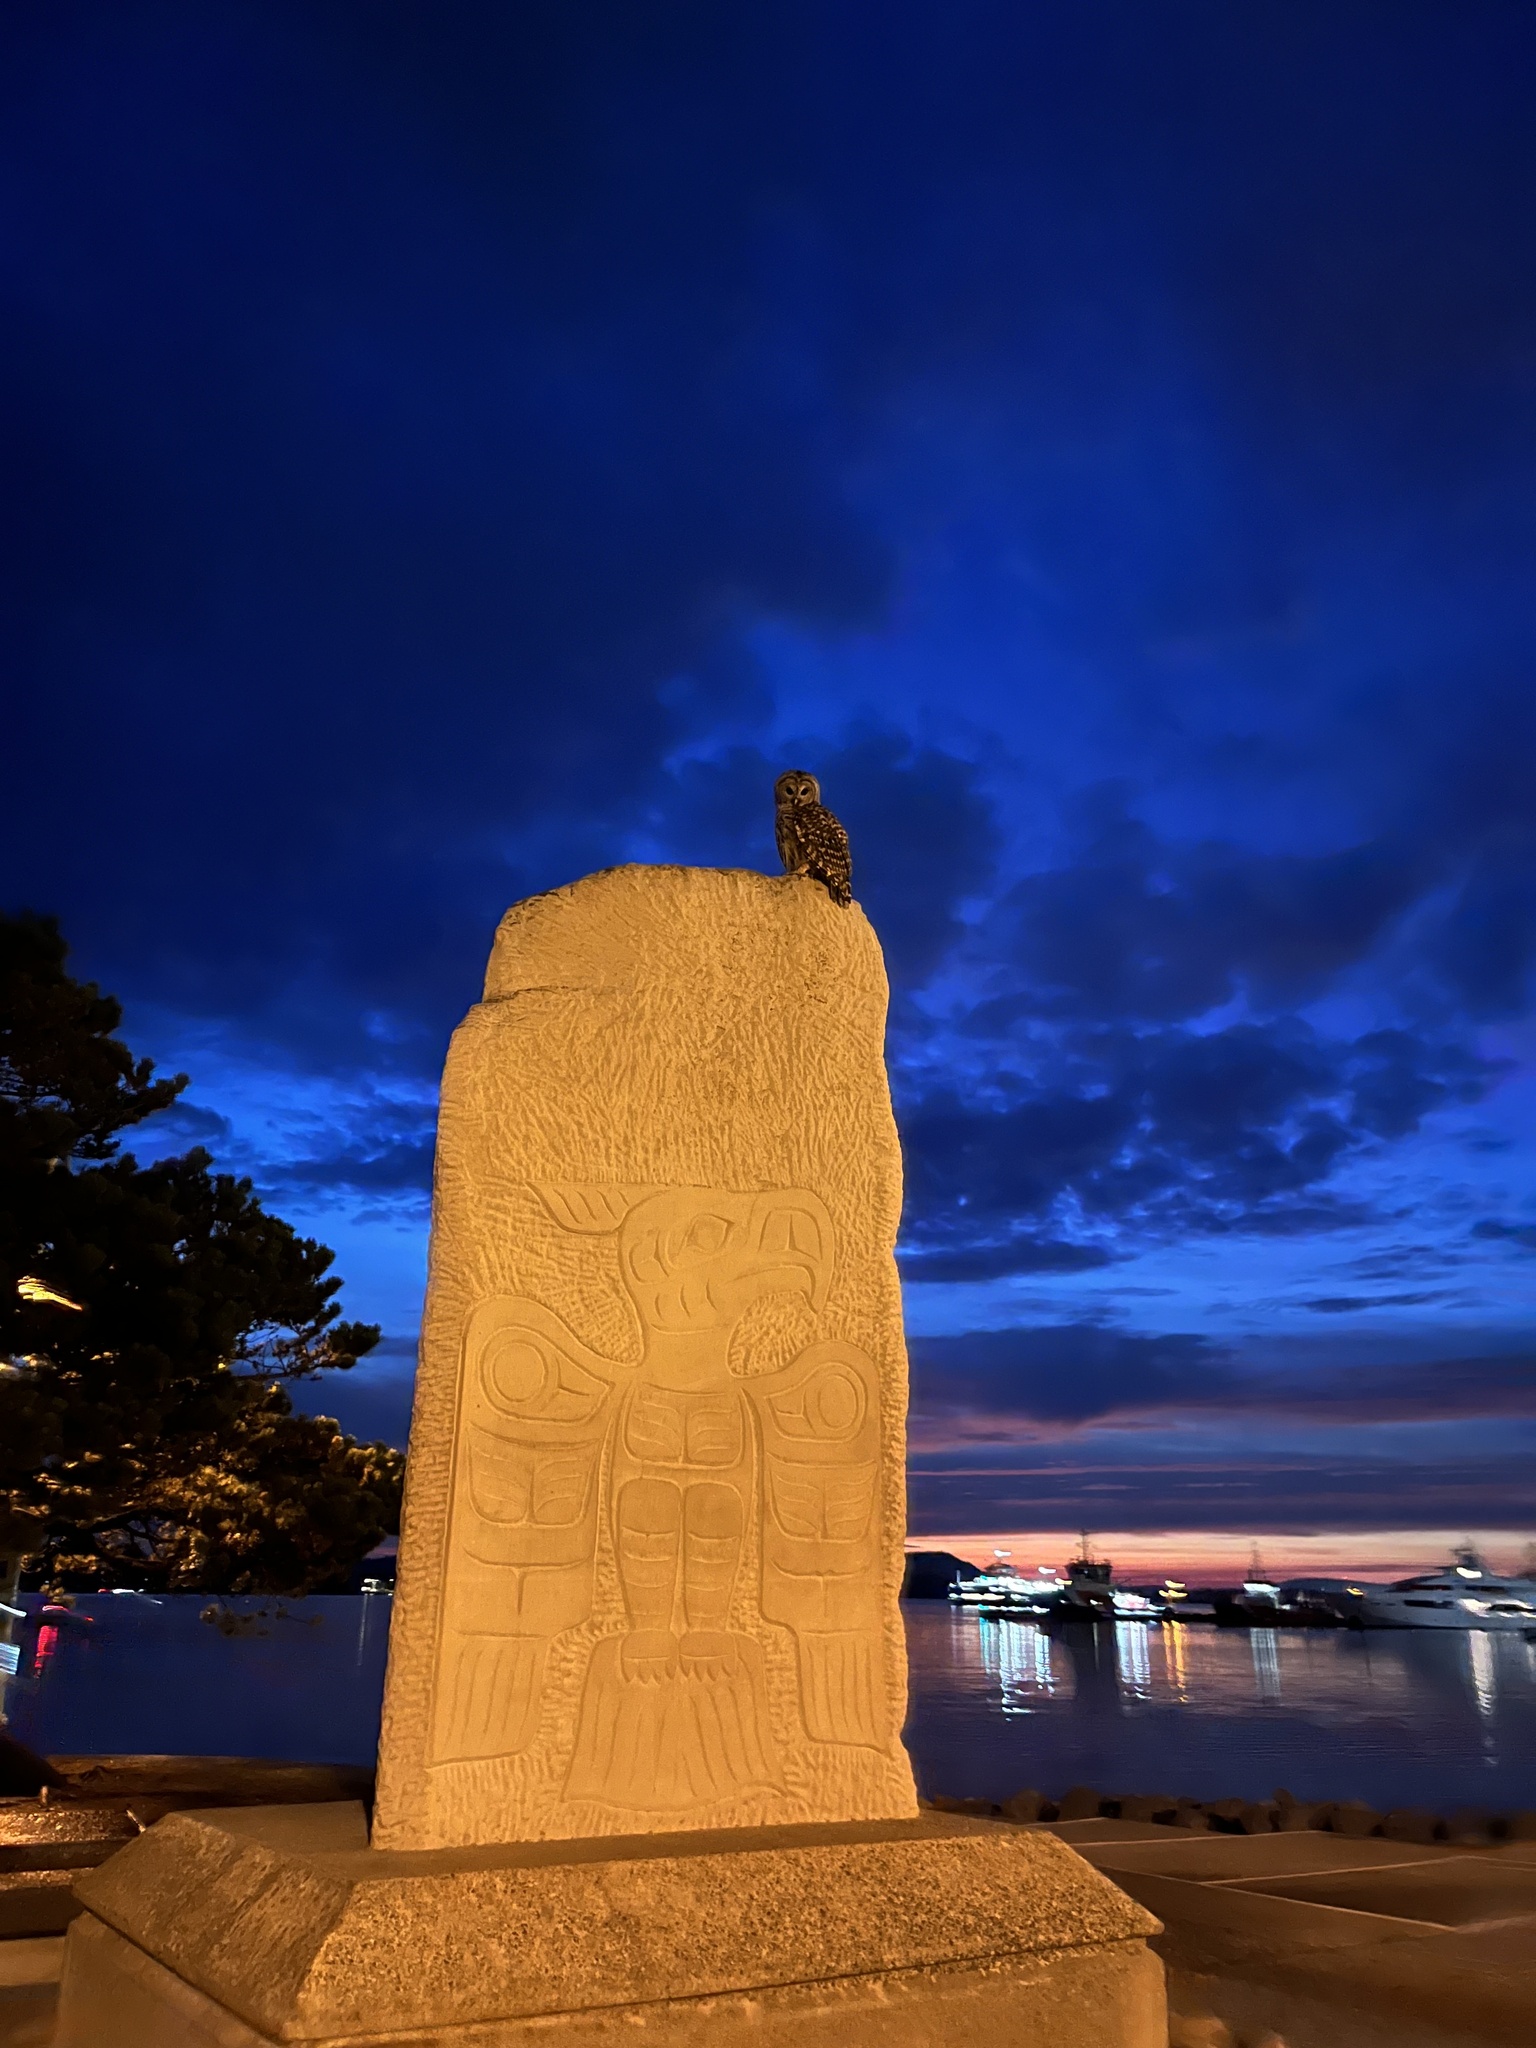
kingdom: Animalia
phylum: Chordata
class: Aves
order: Strigiformes
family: Strigidae
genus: Strix
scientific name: Strix varia
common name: Barred owl
